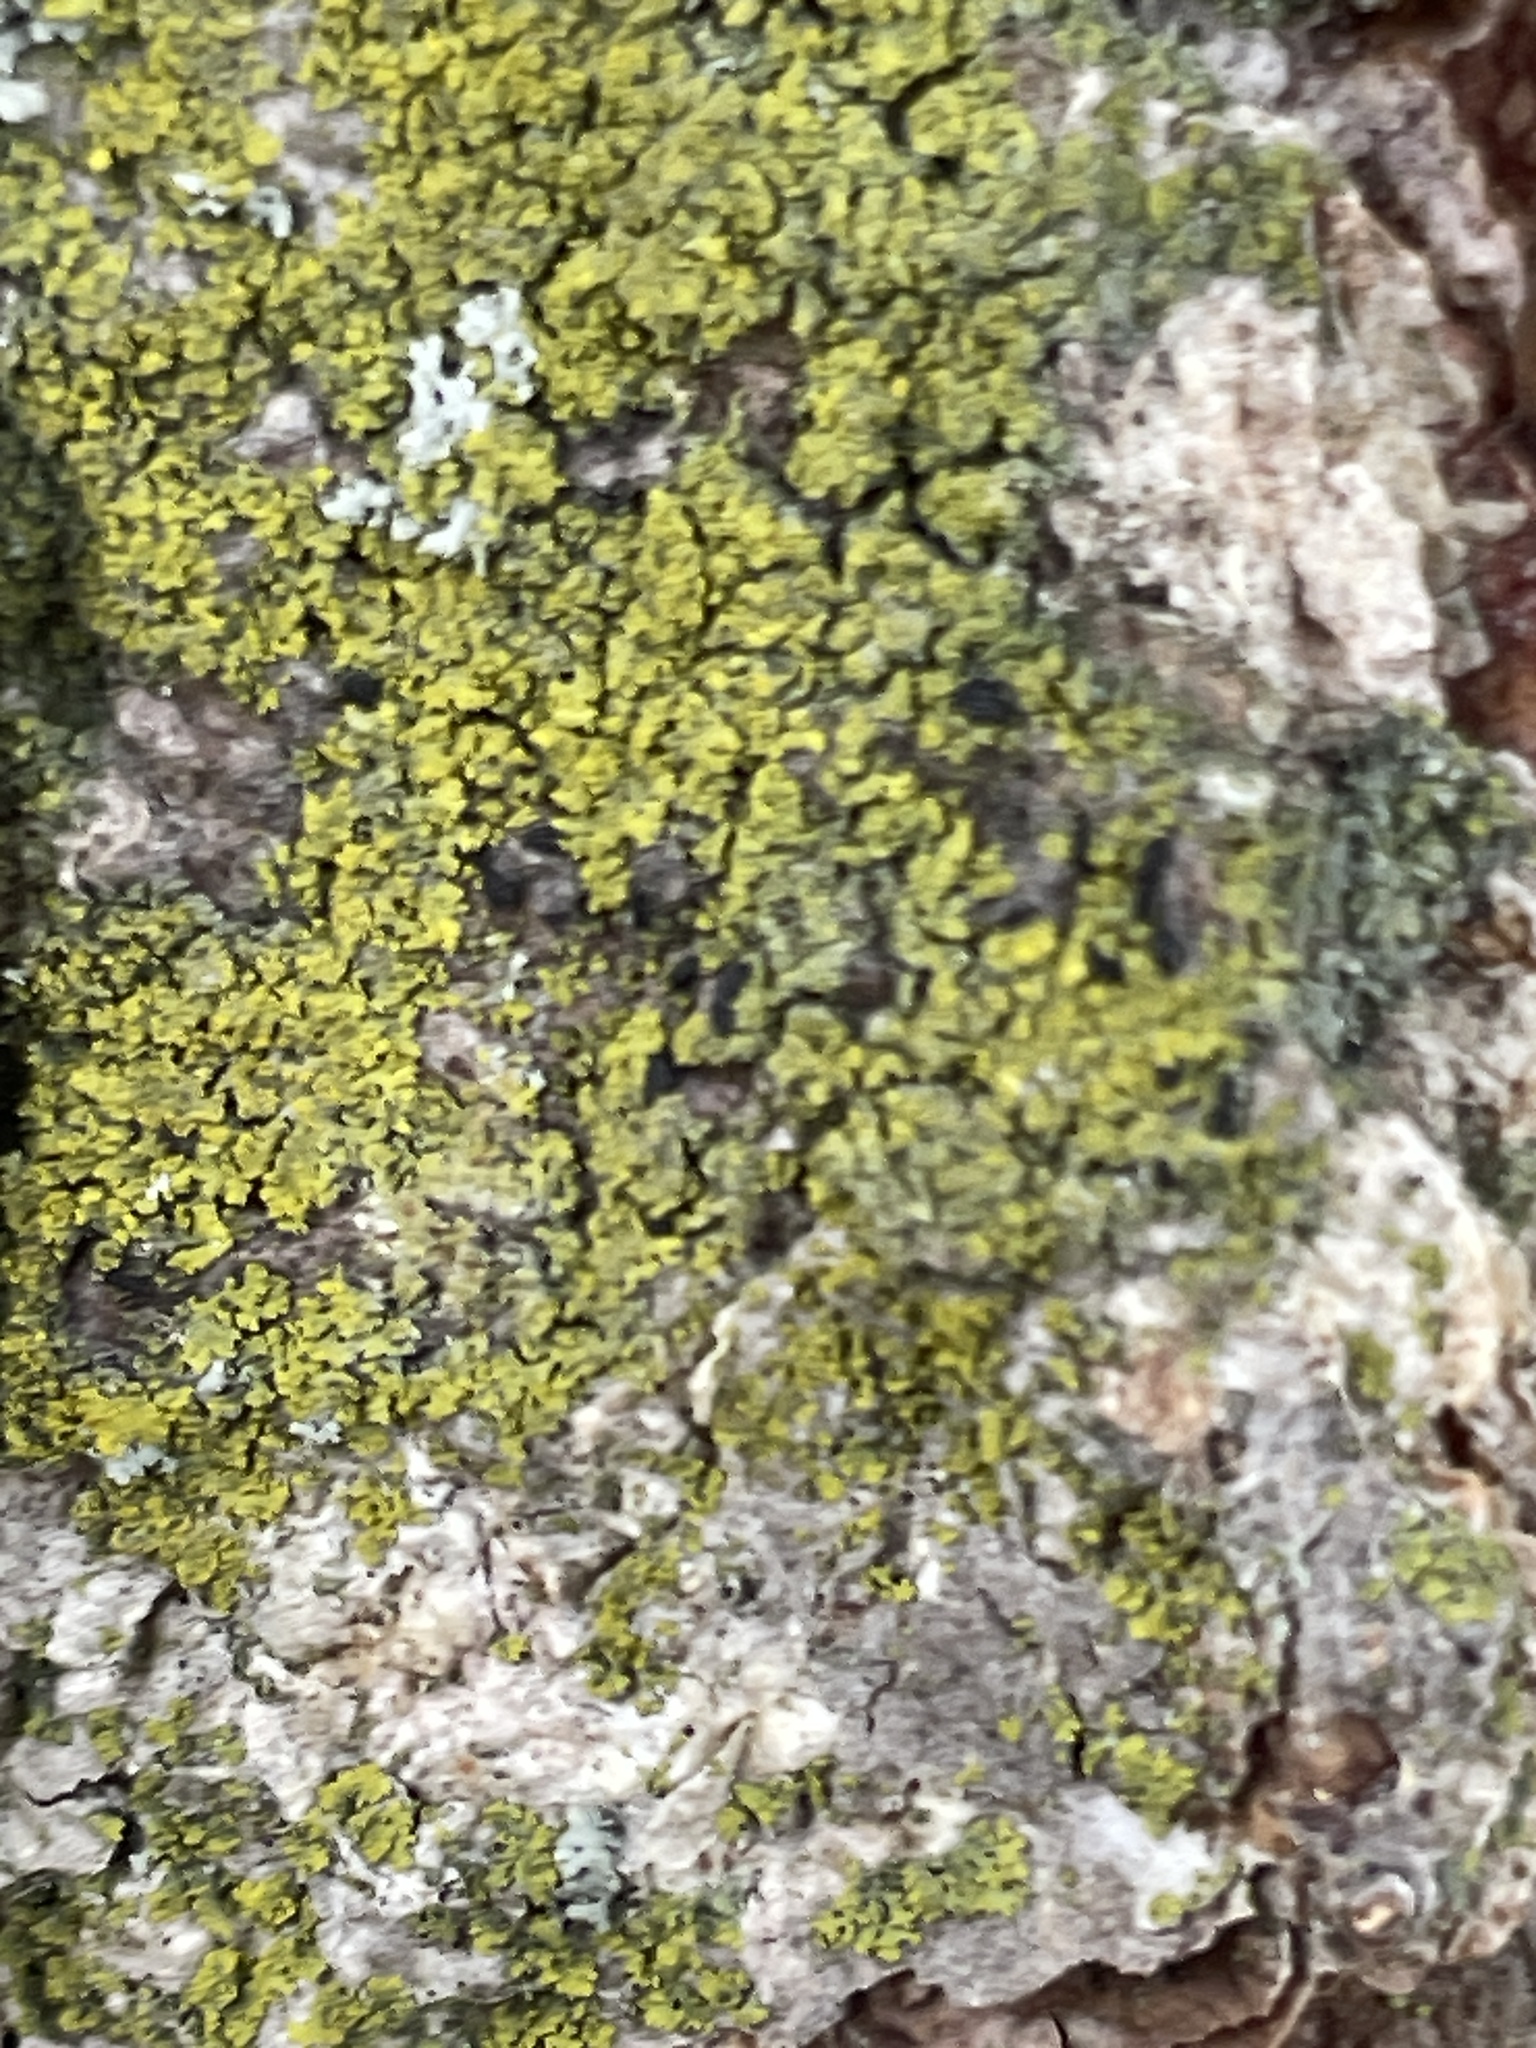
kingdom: Fungi
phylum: Ascomycota
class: Candelariomycetes
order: Candelariales
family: Candelariaceae
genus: Candelaria
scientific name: Candelaria concolor
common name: Candleflame lichen
